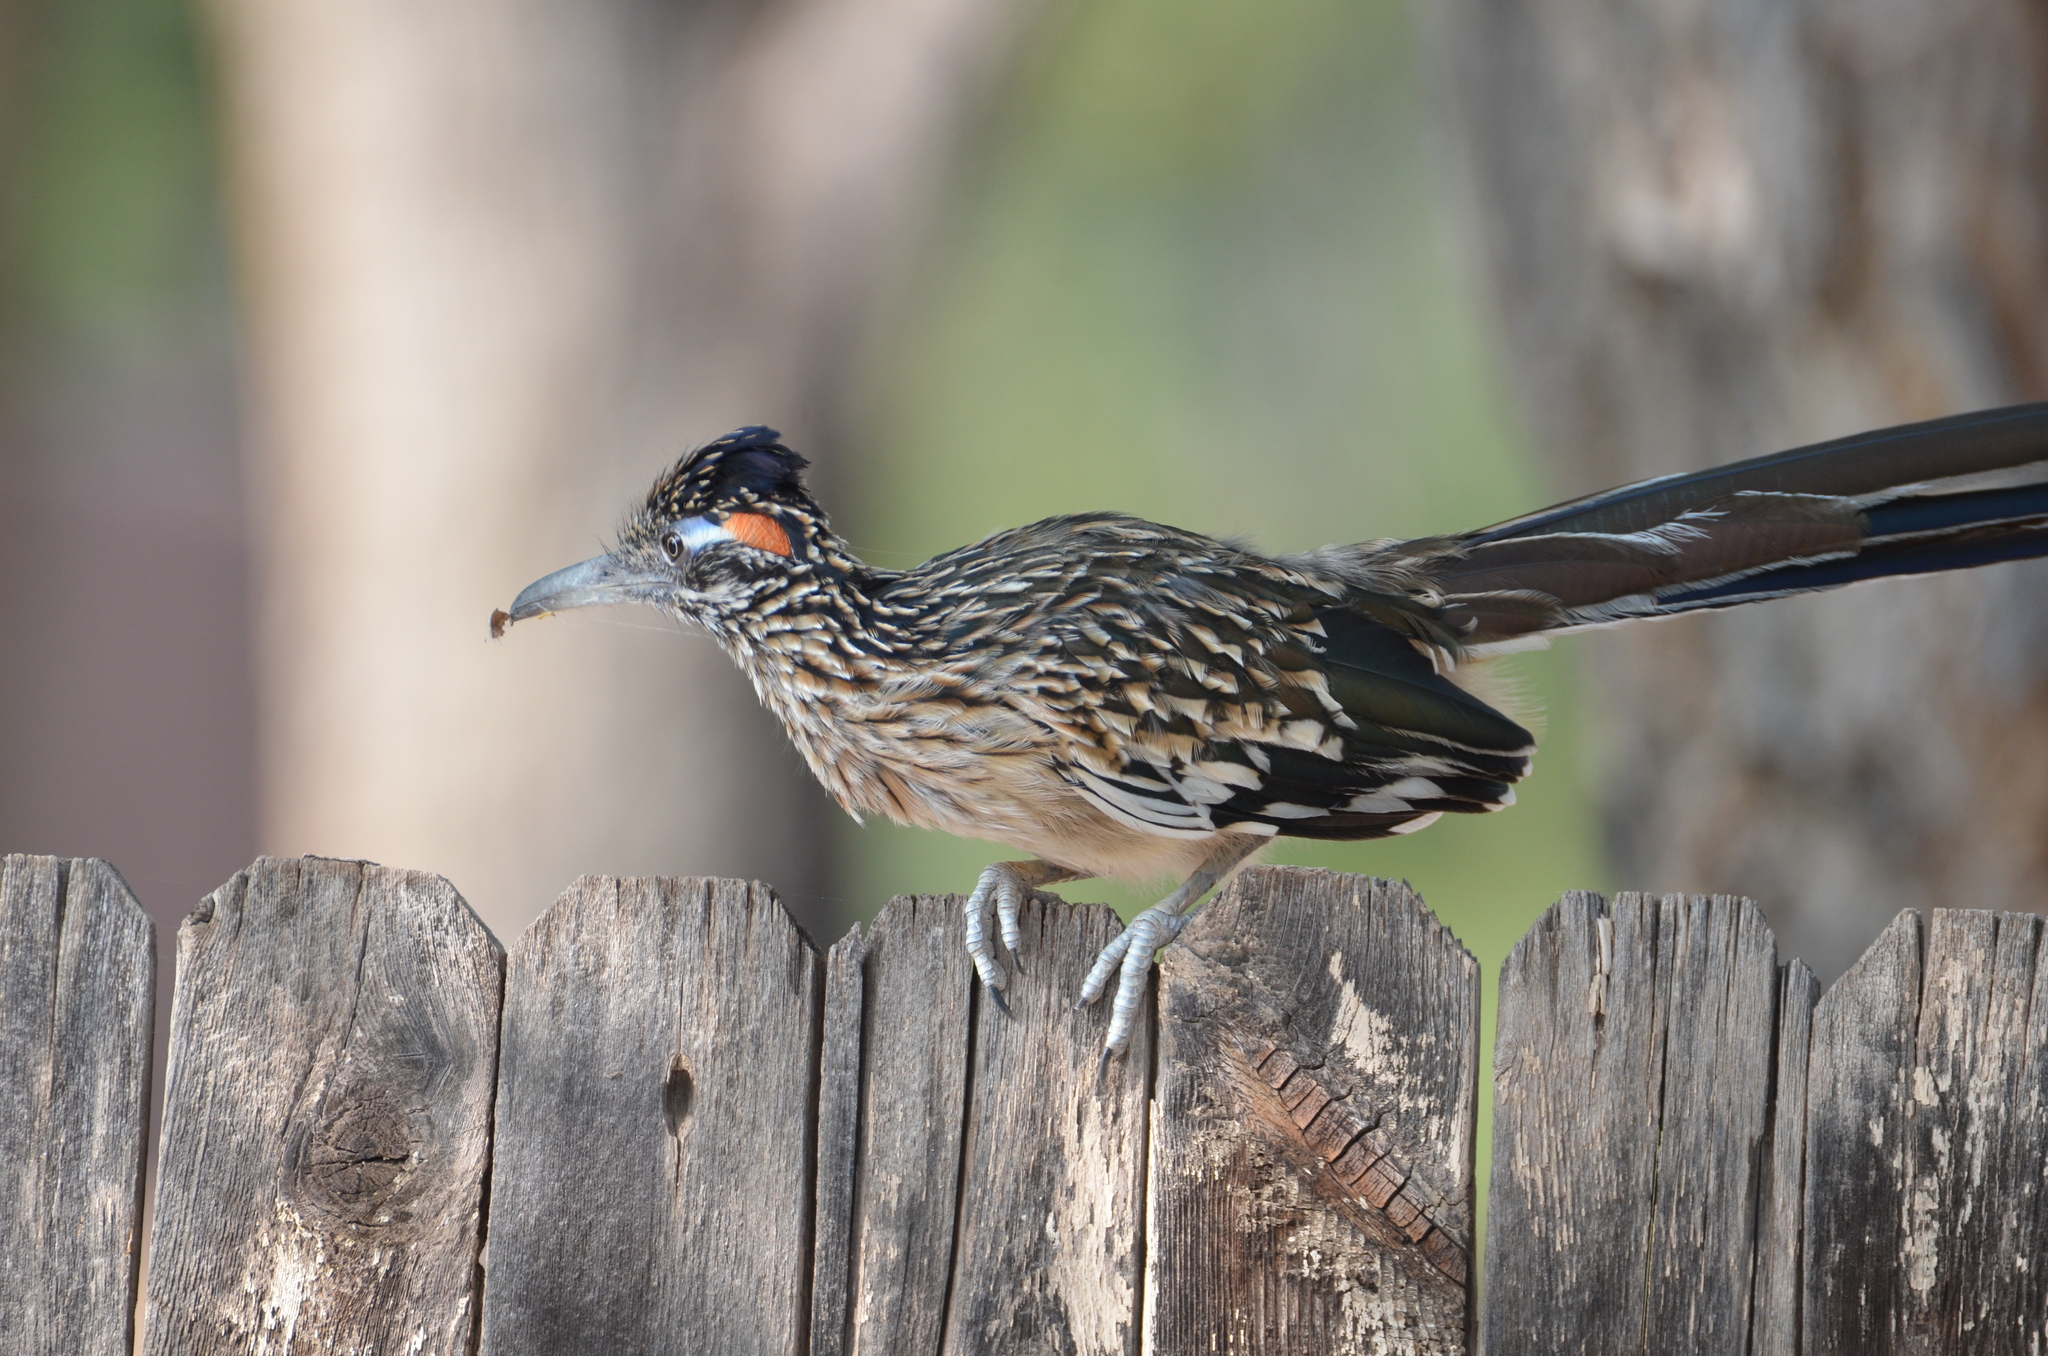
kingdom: Animalia
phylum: Chordata
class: Aves
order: Cuculiformes
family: Cuculidae
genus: Geococcyx
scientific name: Geococcyx californianus
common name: Greater roadrunner
